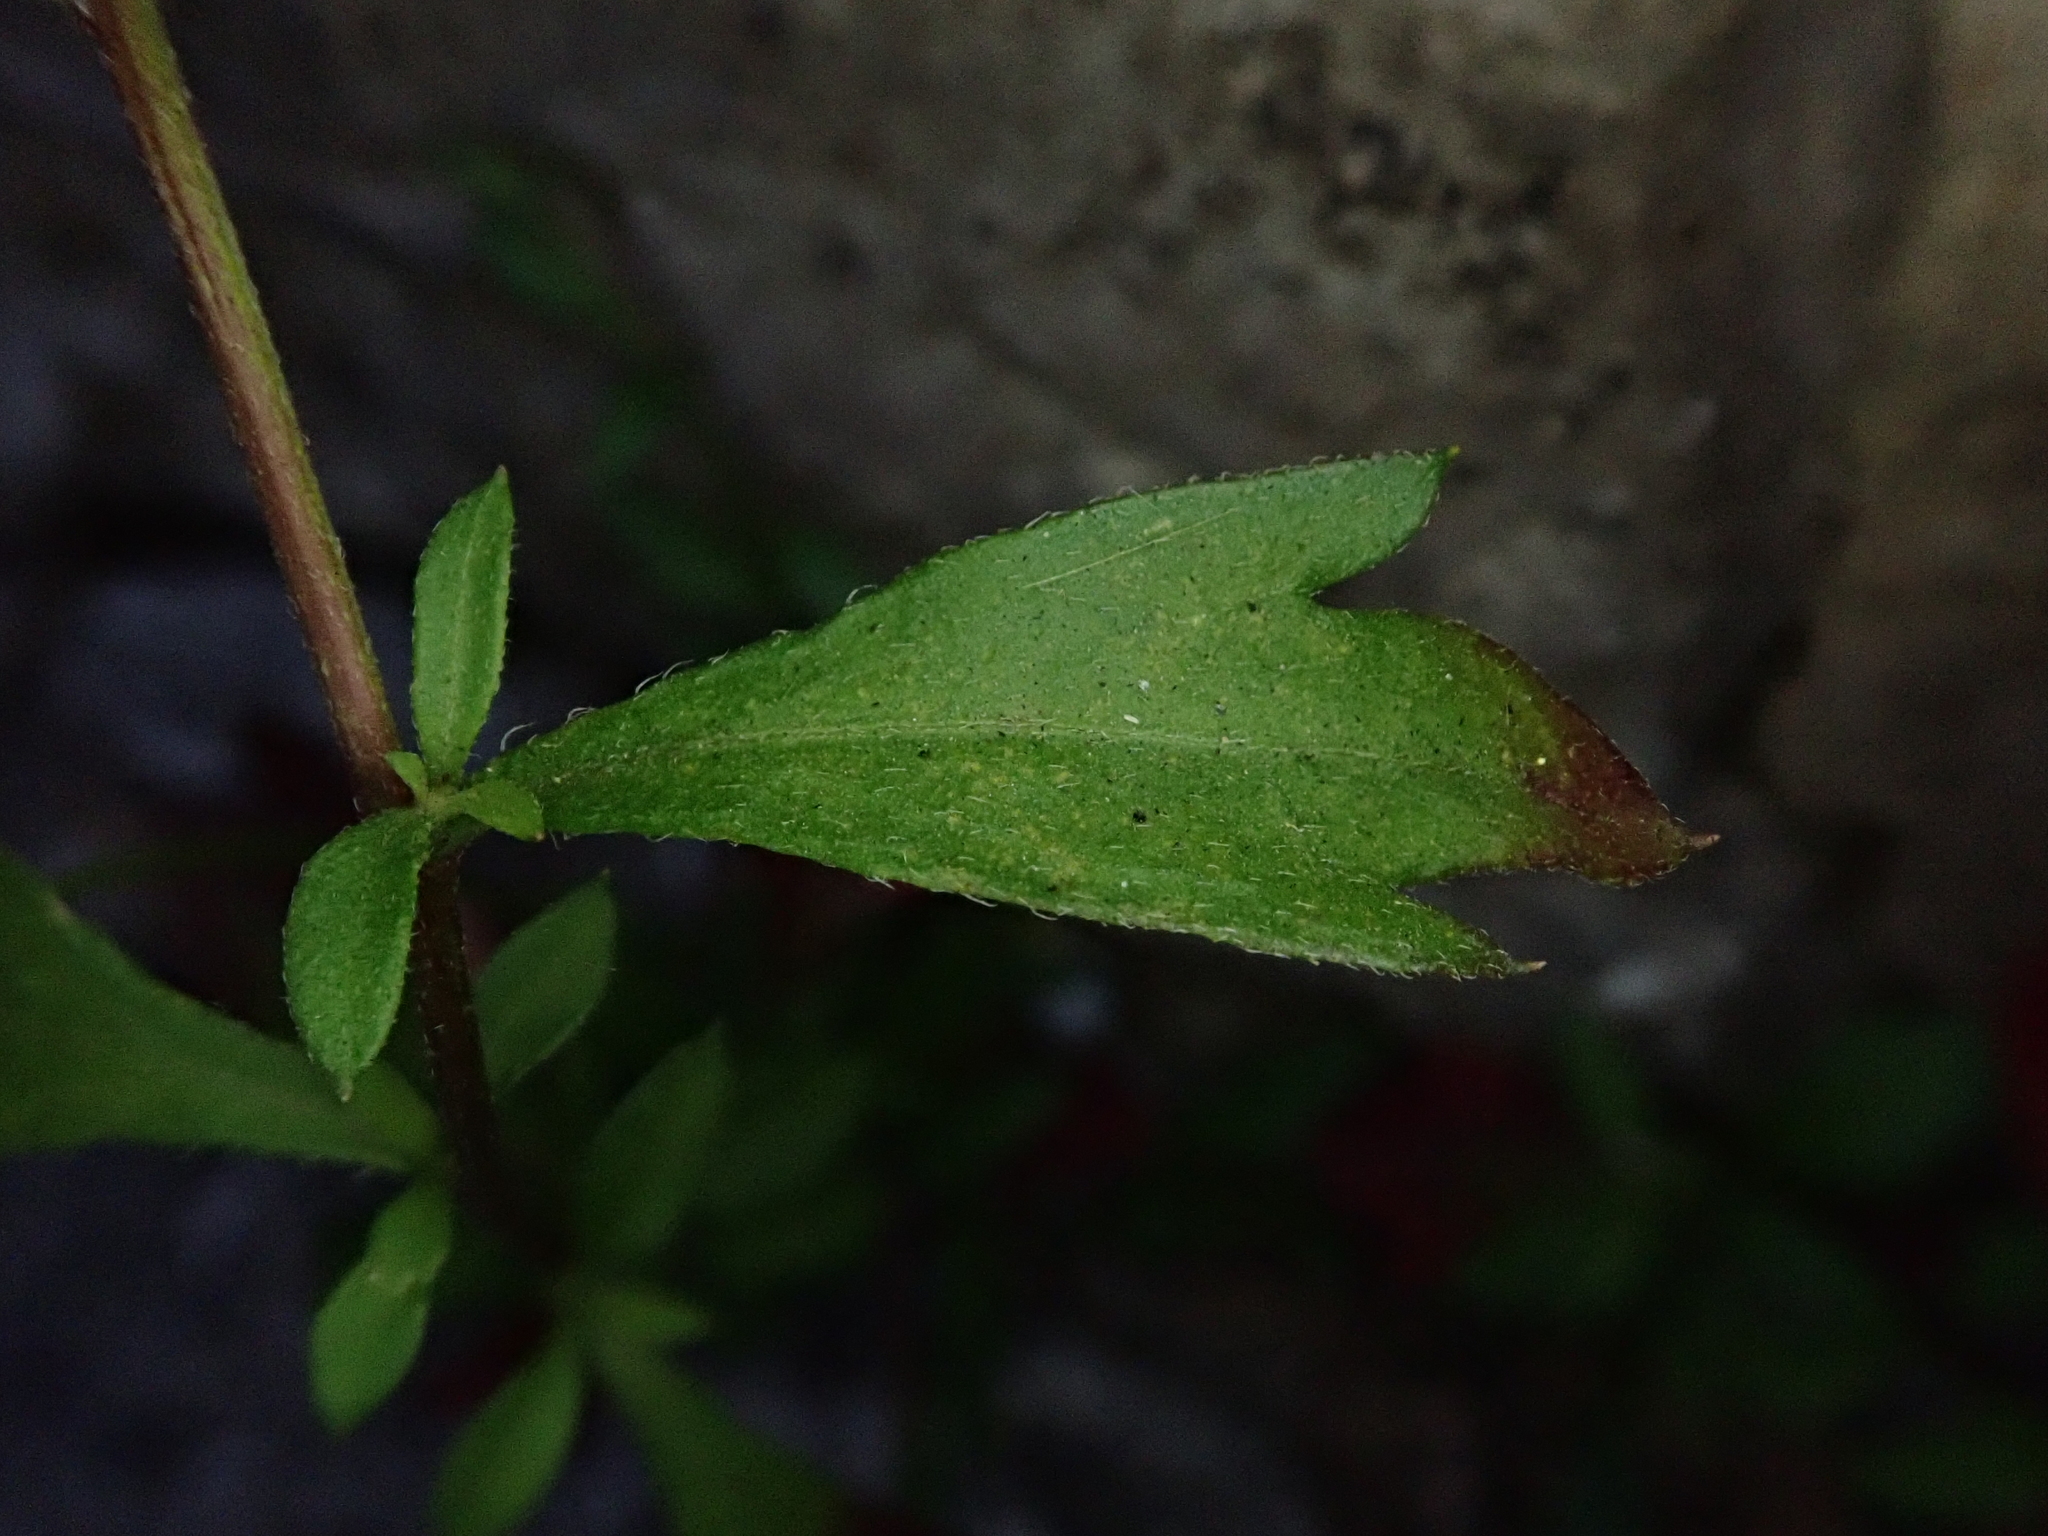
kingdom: Plantae
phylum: Tracheophyta
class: Magnoliopsida
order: Asterales
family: Asteraceae
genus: Erigeron
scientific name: Erigeron karvinskianus
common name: Mexican fleabane
